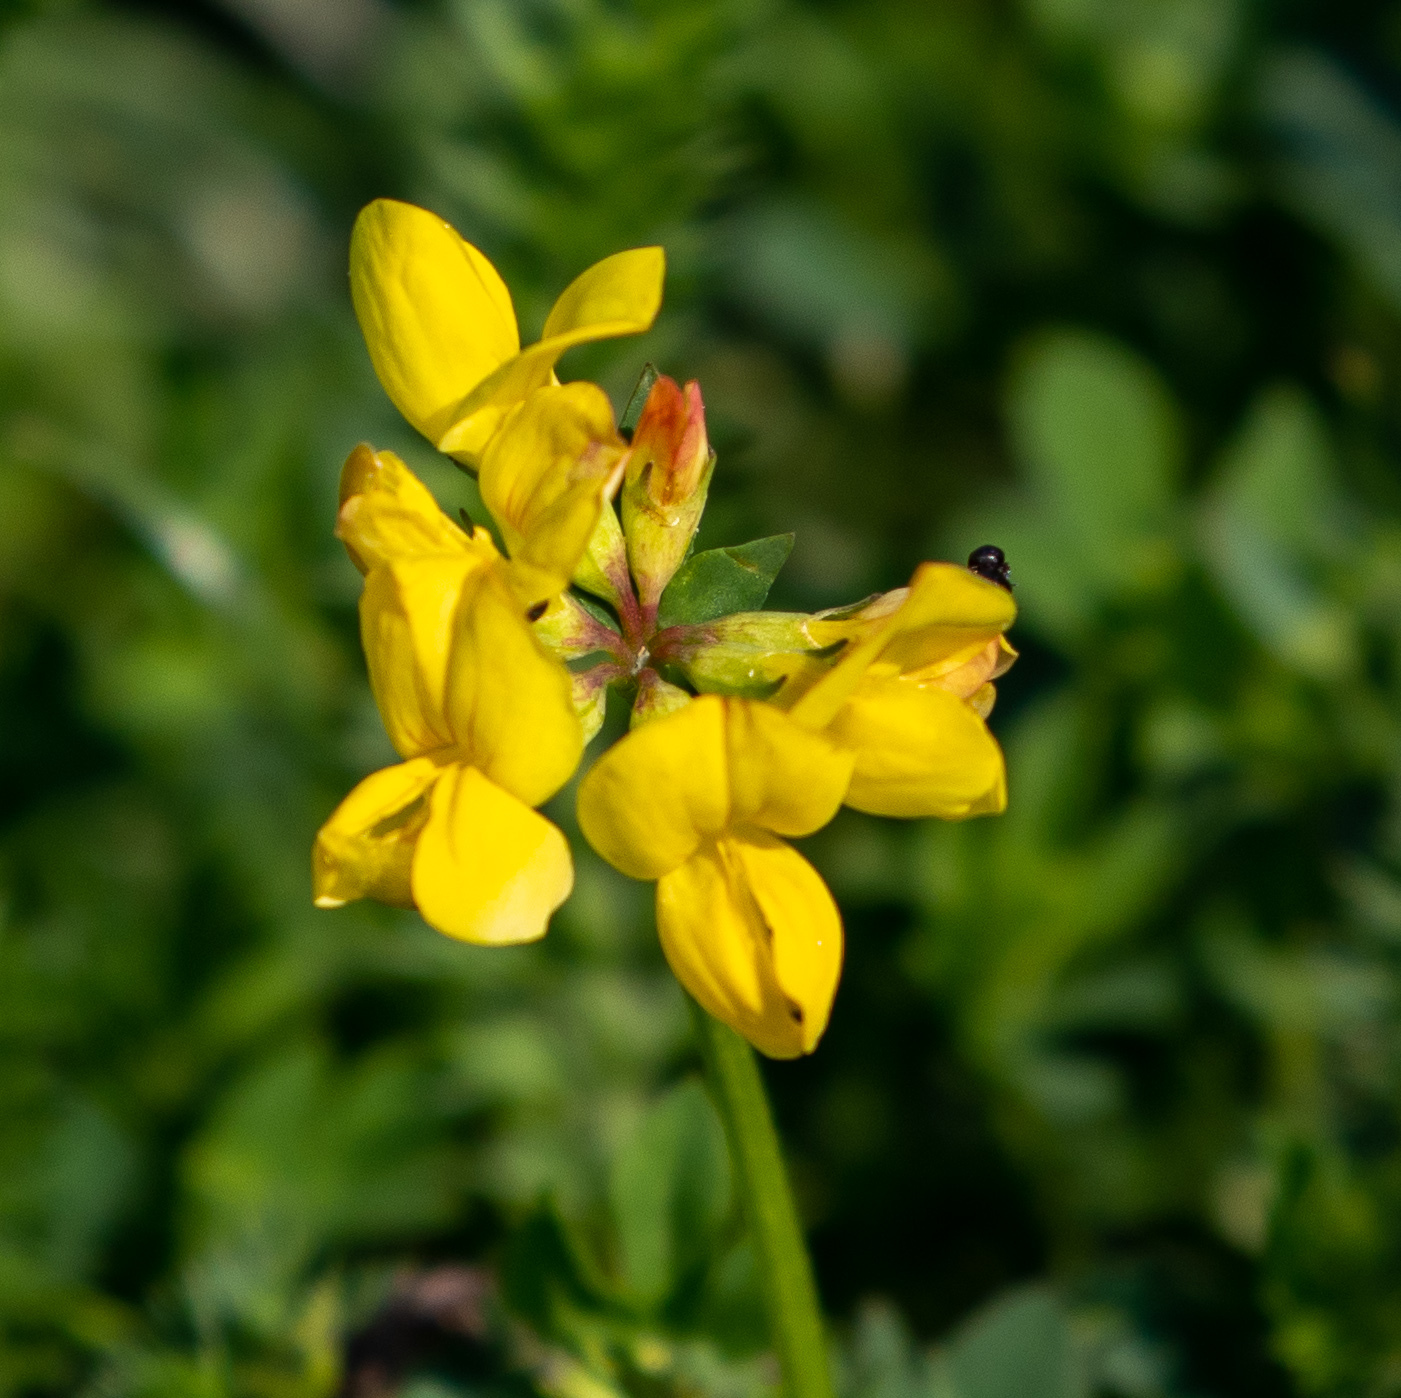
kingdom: Plantae
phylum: Tracheophyta
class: Magnoliopsida
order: Fabales
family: Fabaceae
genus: Lotus
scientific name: Lotus corniculatus
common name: Common bird's-foot-trefoil
